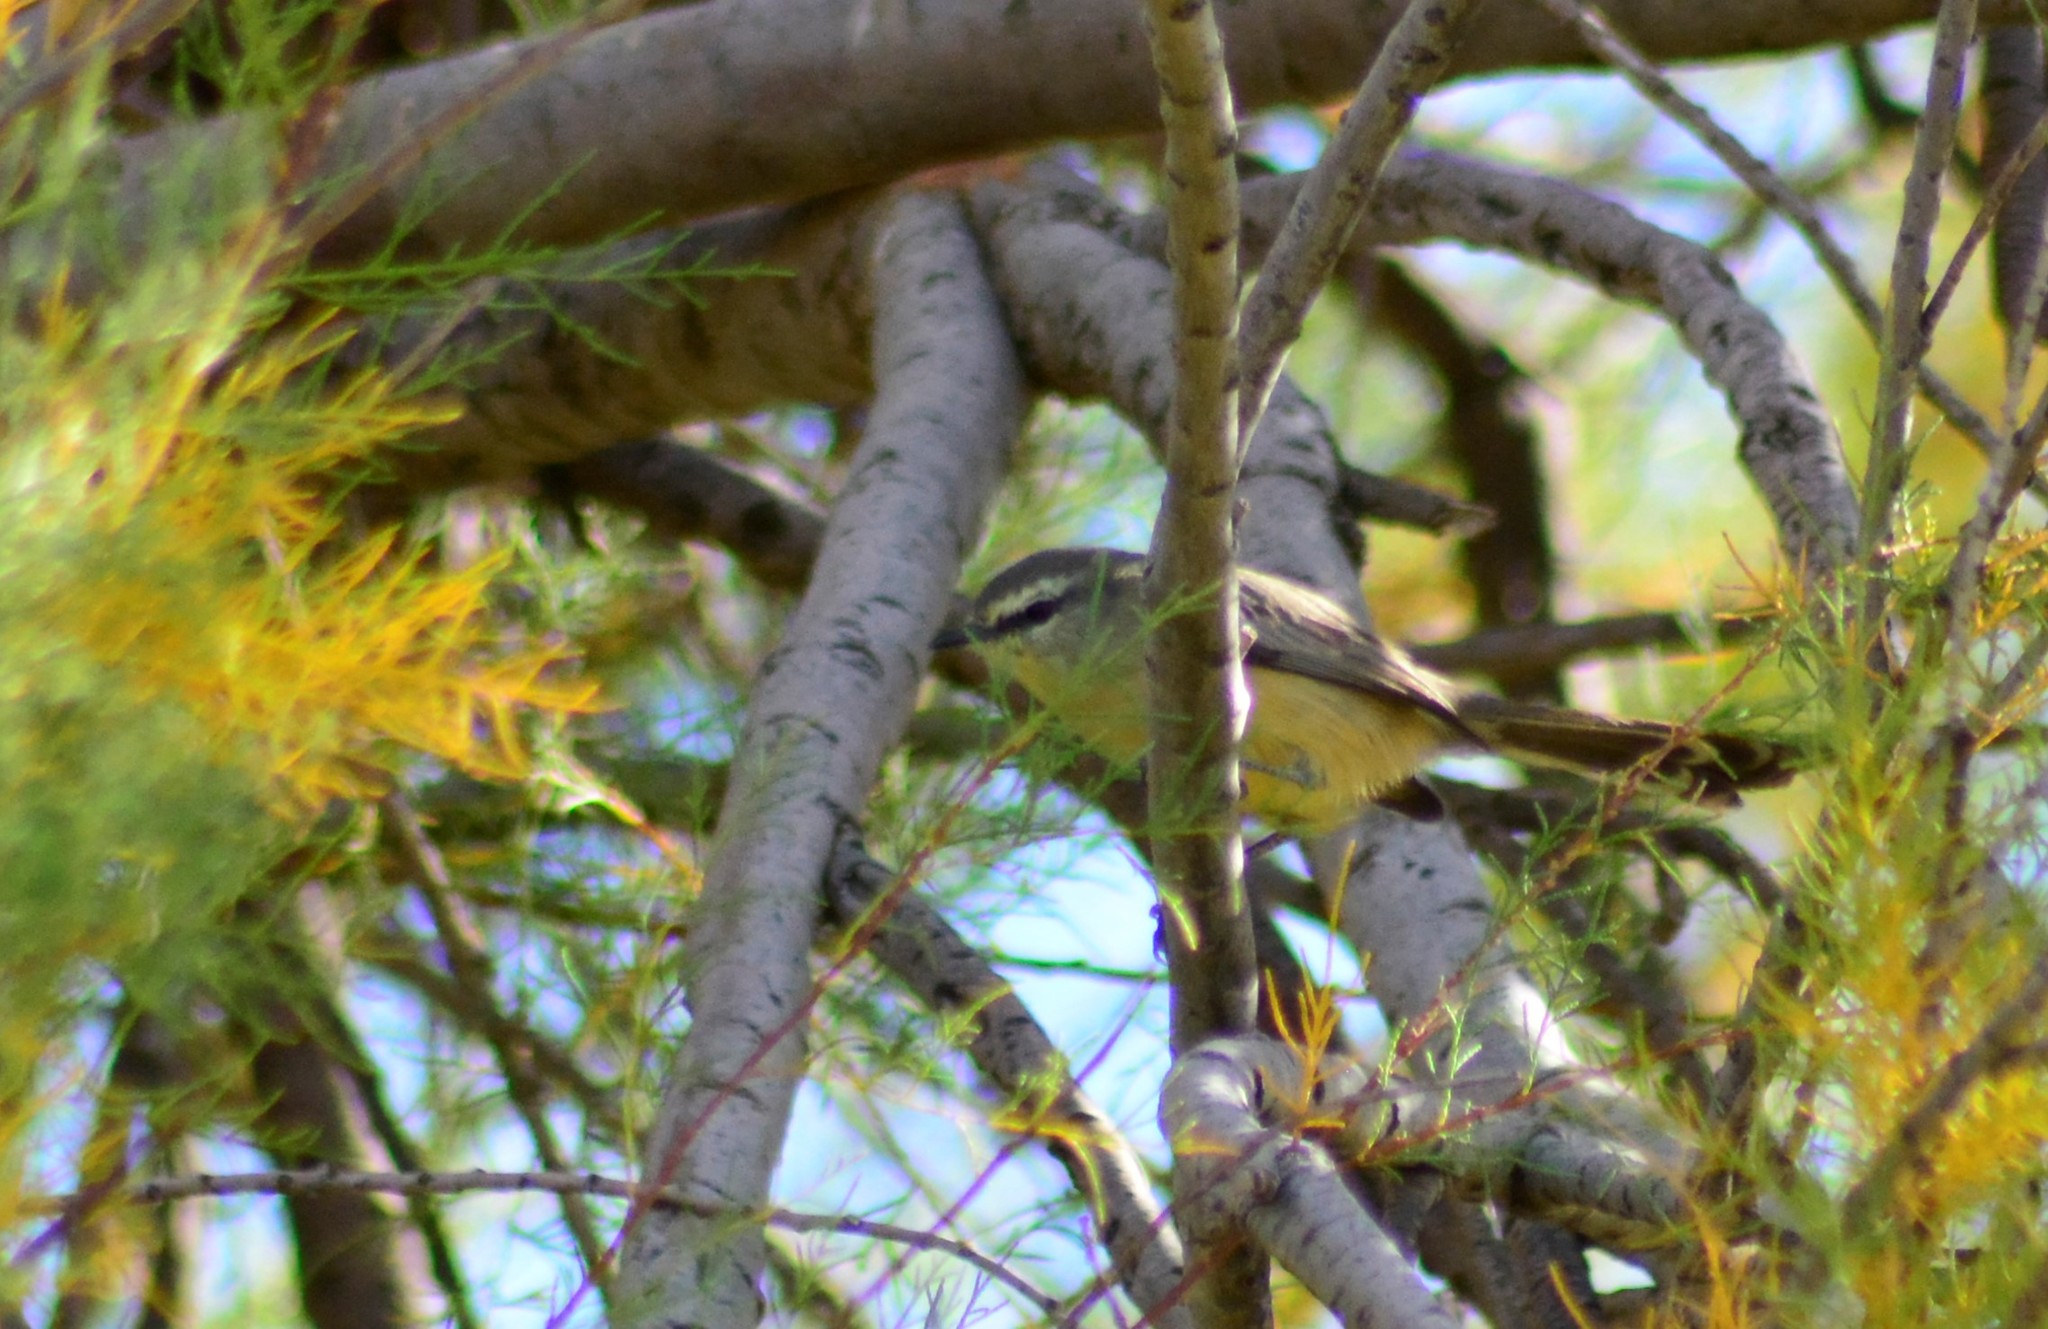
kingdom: Animalia
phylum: Chordata
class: Aves
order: Passeriformes
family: Tyrannidae
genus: Stigmatura
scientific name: Stigmatura budytoides
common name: Greater wagtail-tyrant
